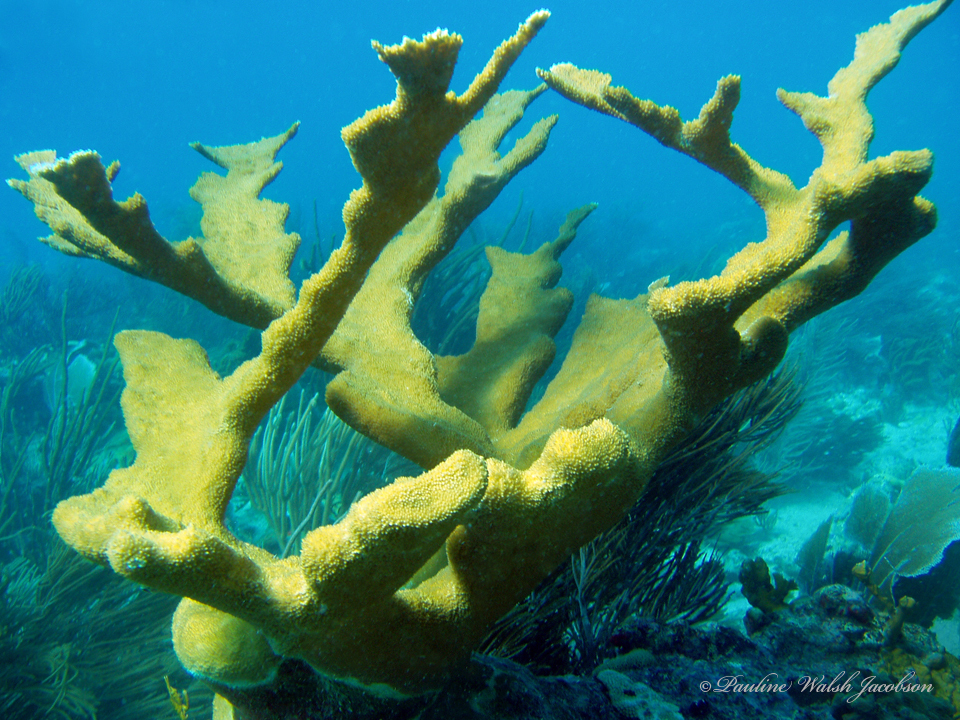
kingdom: Animalia
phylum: Cnidaria
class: Anthozoa
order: Scleractinia
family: Acroporidae
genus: Acropora
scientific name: Acropora palmata
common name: Elkhorn coral
